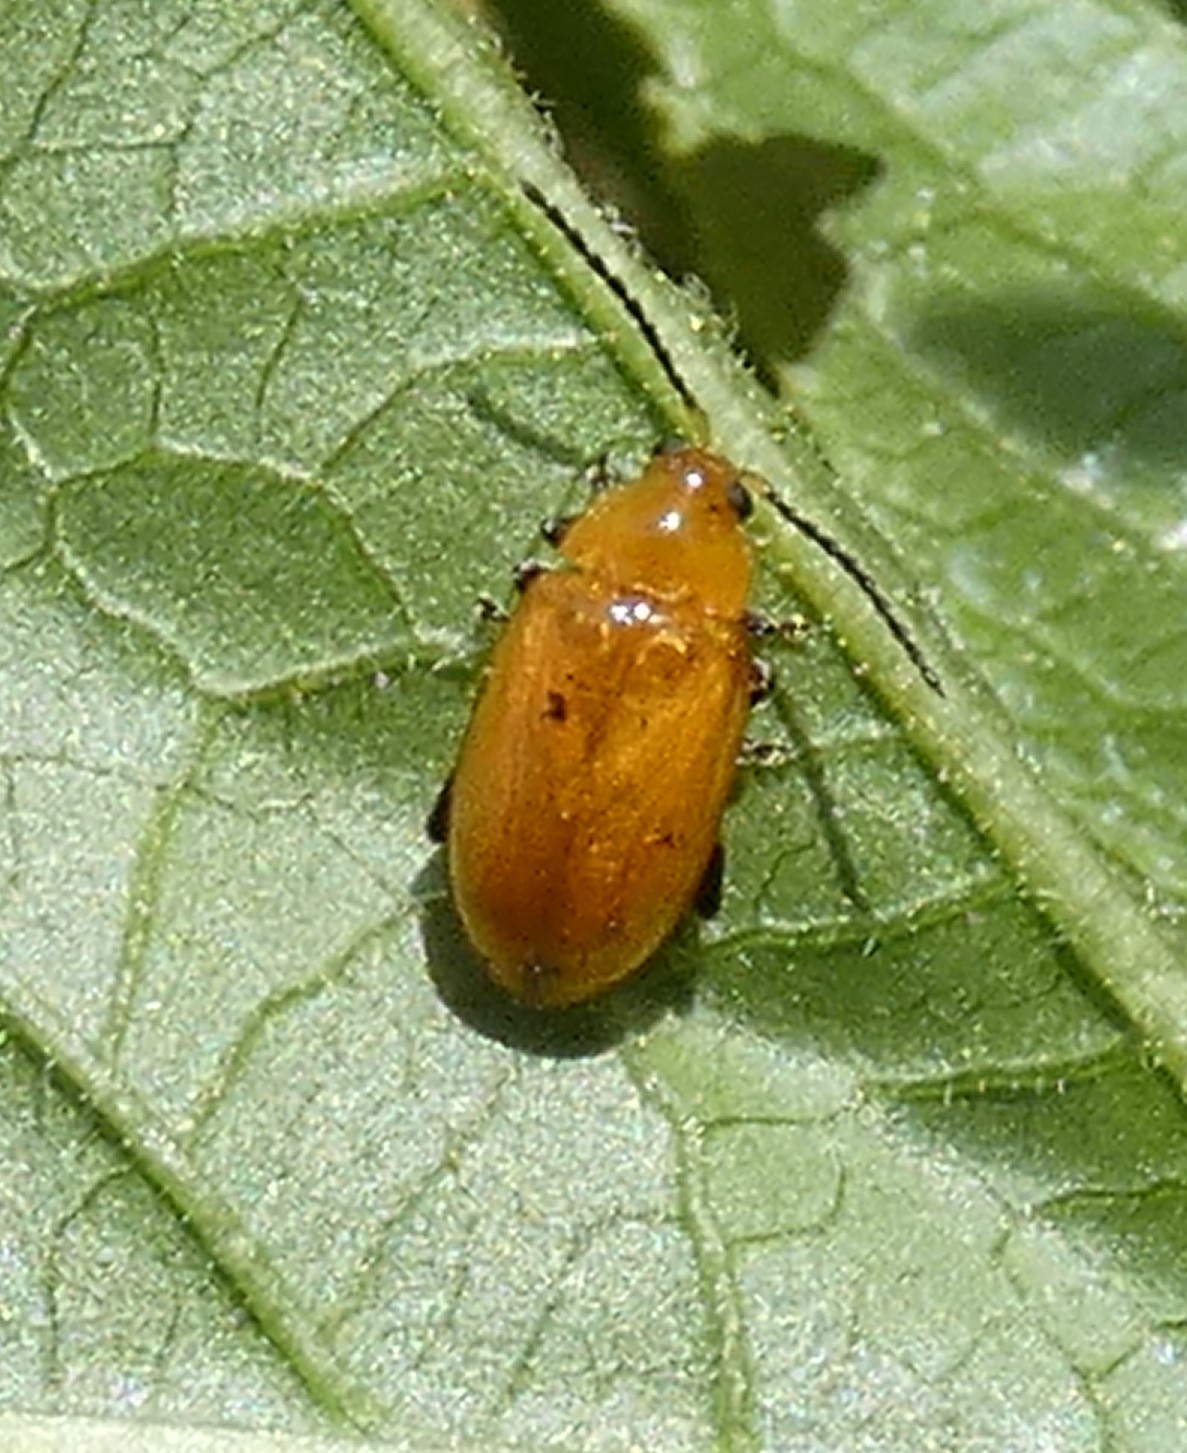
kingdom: Animalia
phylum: Arthropoda
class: Insecta
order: Coleoptera
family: Chrysomelidae
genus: Parchicola
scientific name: Parchicola tibialis
